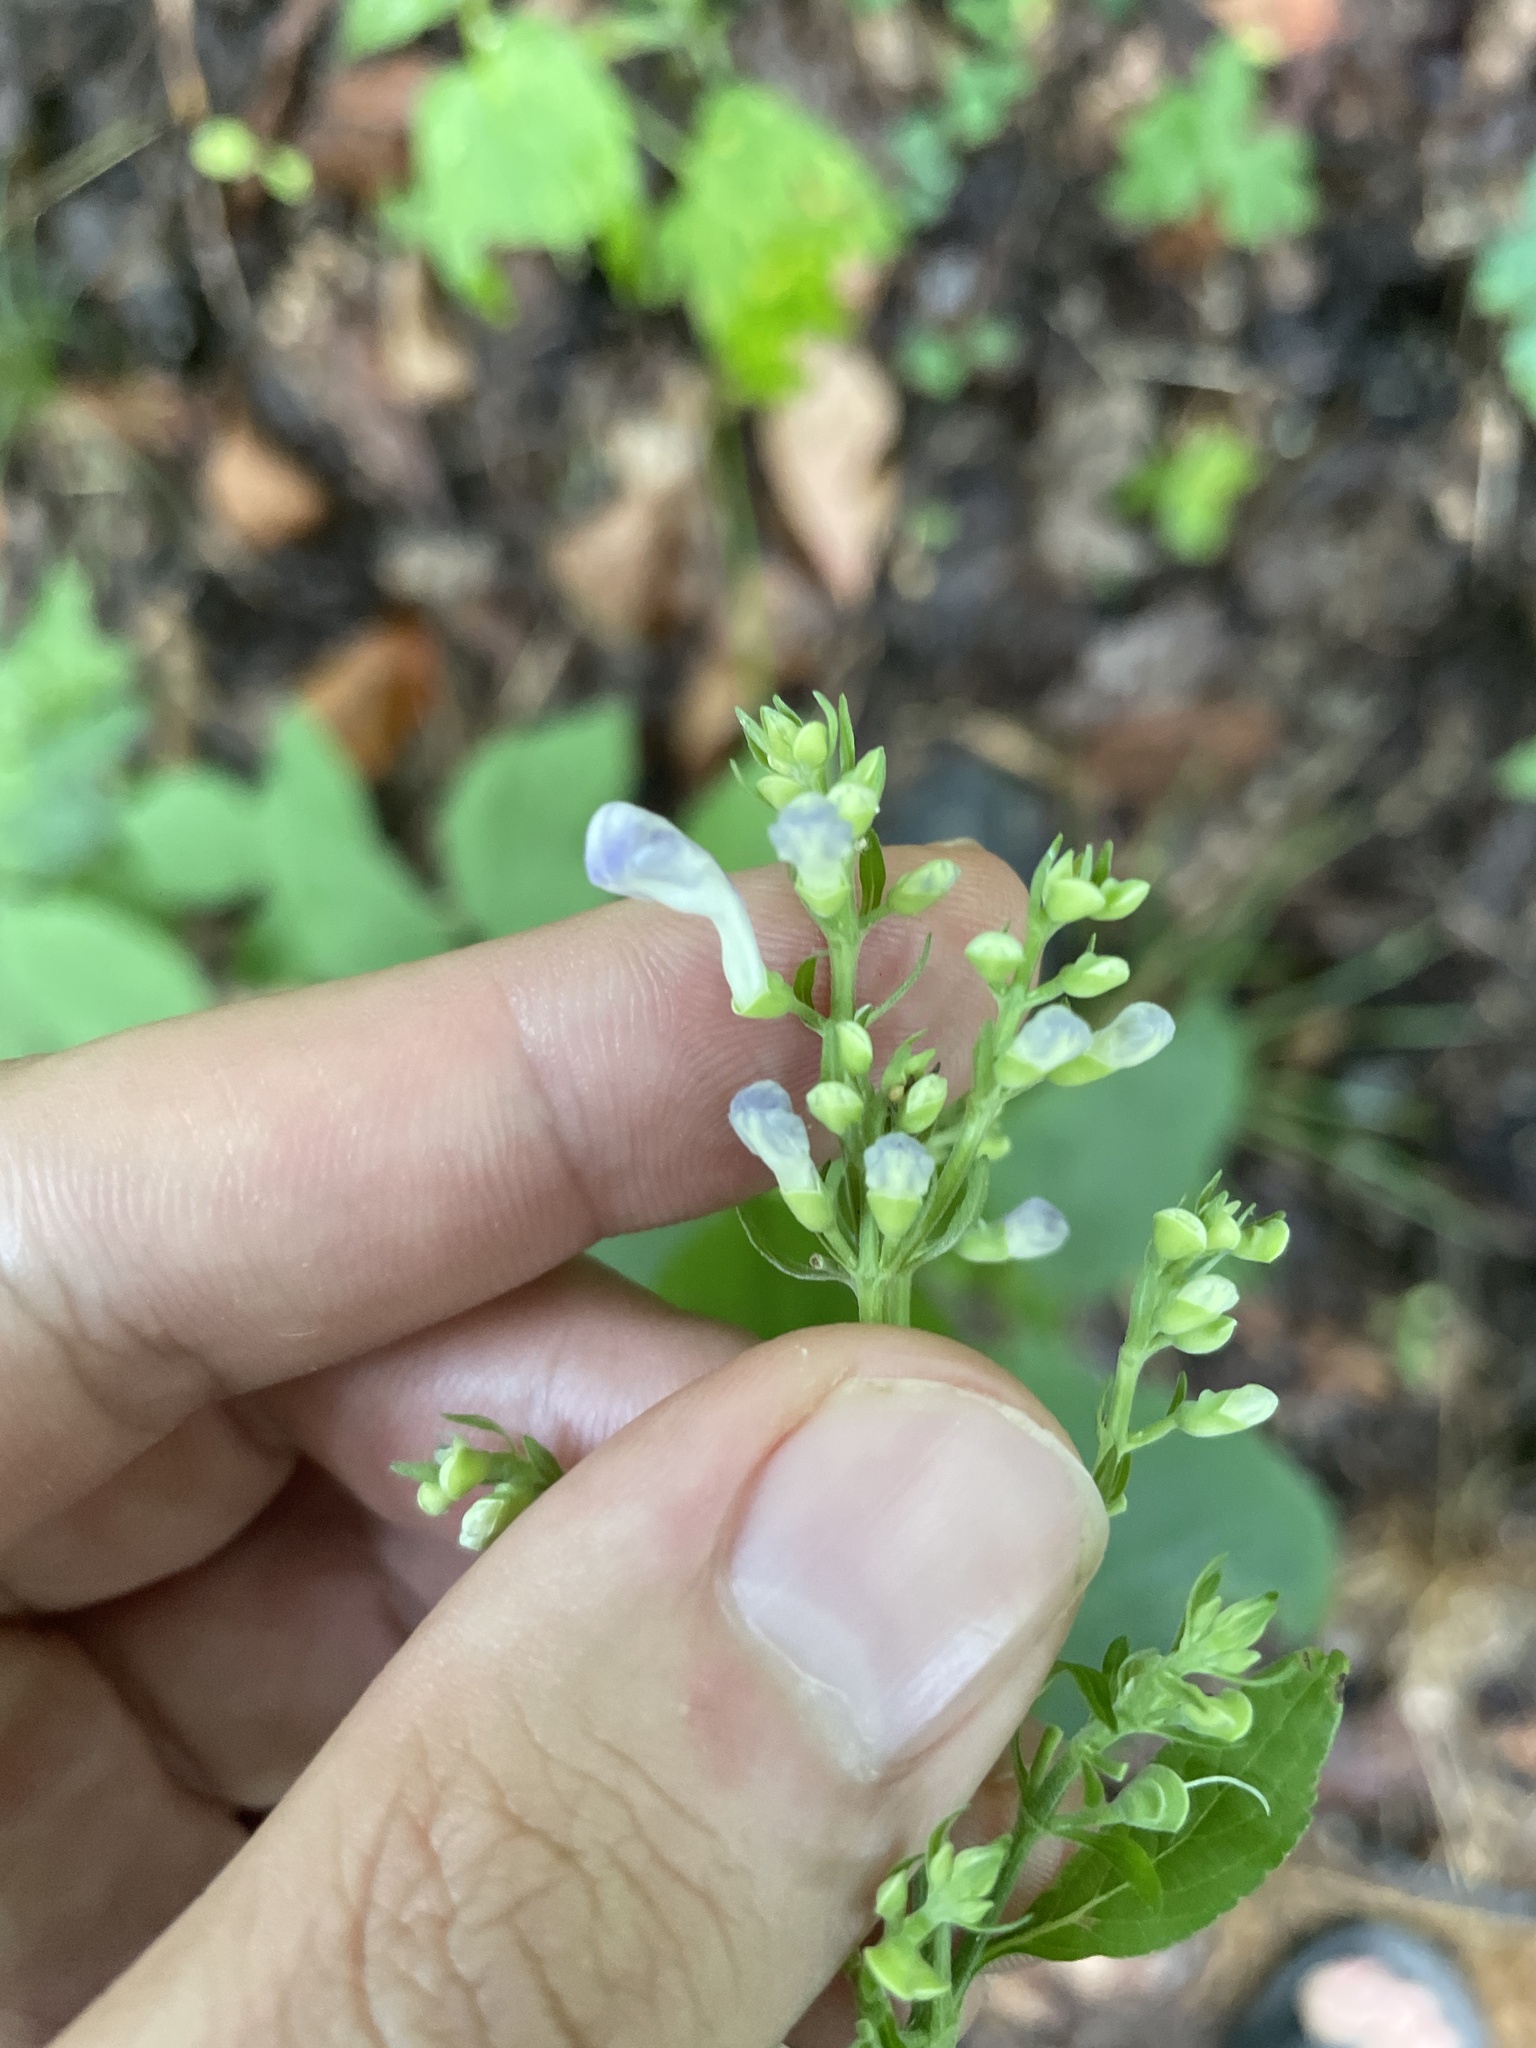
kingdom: Plantae
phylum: Tracheophyta
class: Magnoliopsida
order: Lamiales
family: Lamiaceae
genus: Scutellaria
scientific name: Scutellaria incana
